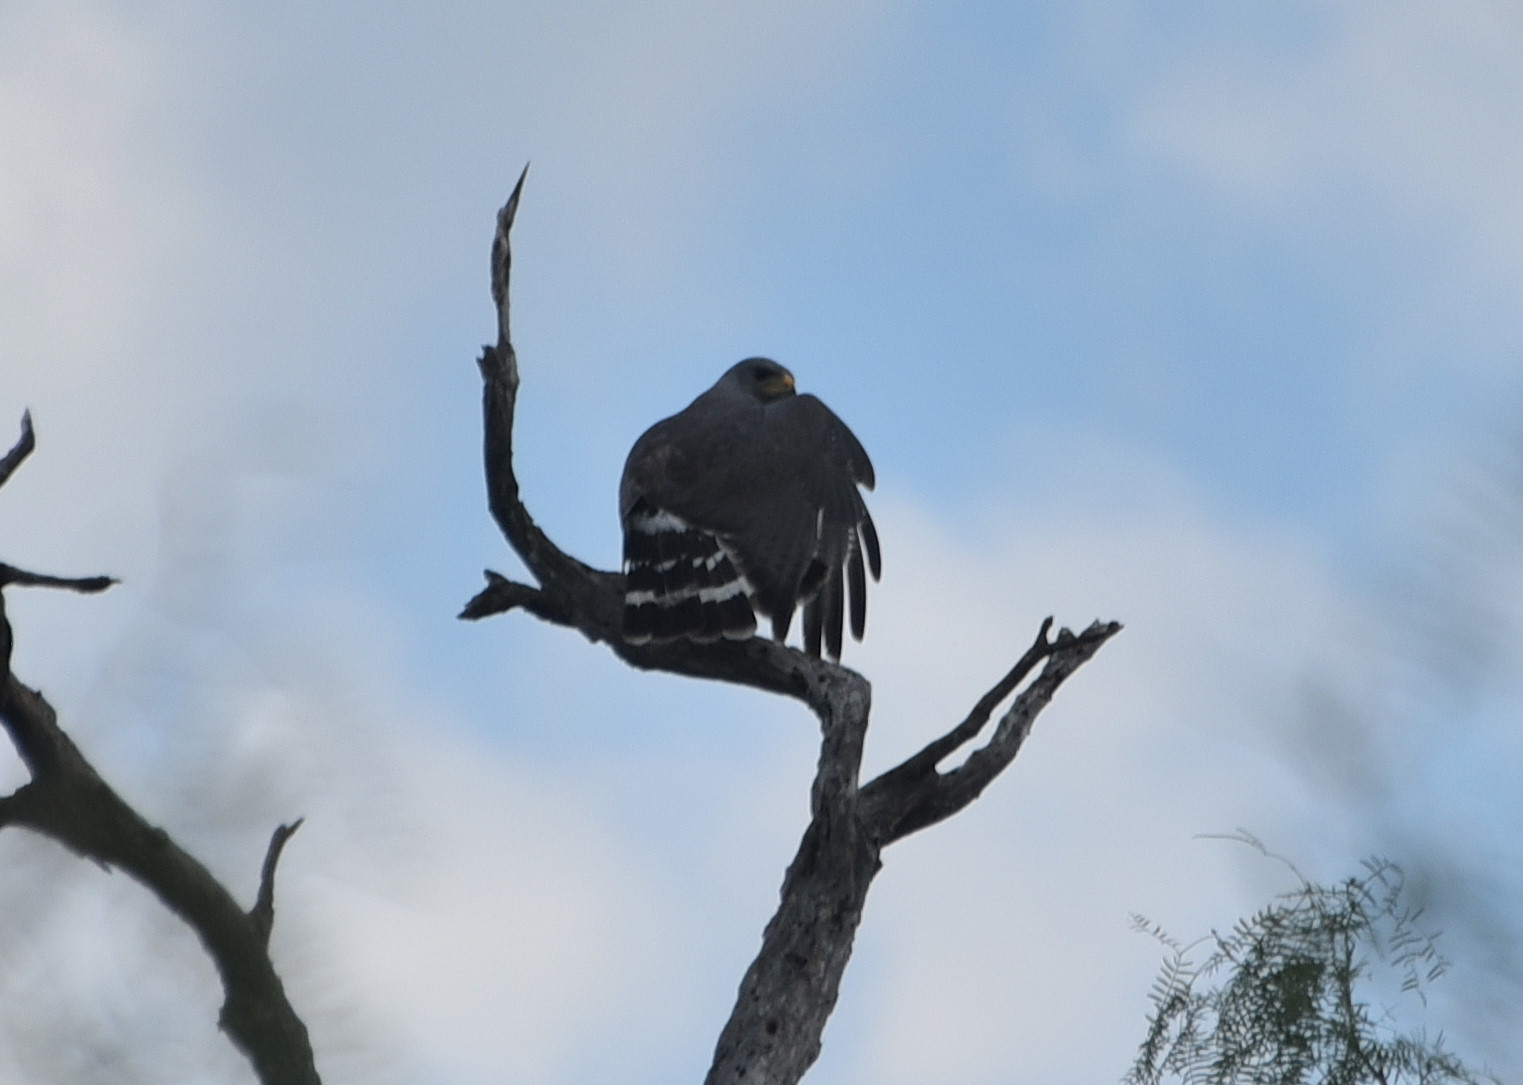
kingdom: Animalia
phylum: Chordata
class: Aves
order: Accipitriformes
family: Accipitridae
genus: Buteo
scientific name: Buteo nitidus
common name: Grey-lined hawk
